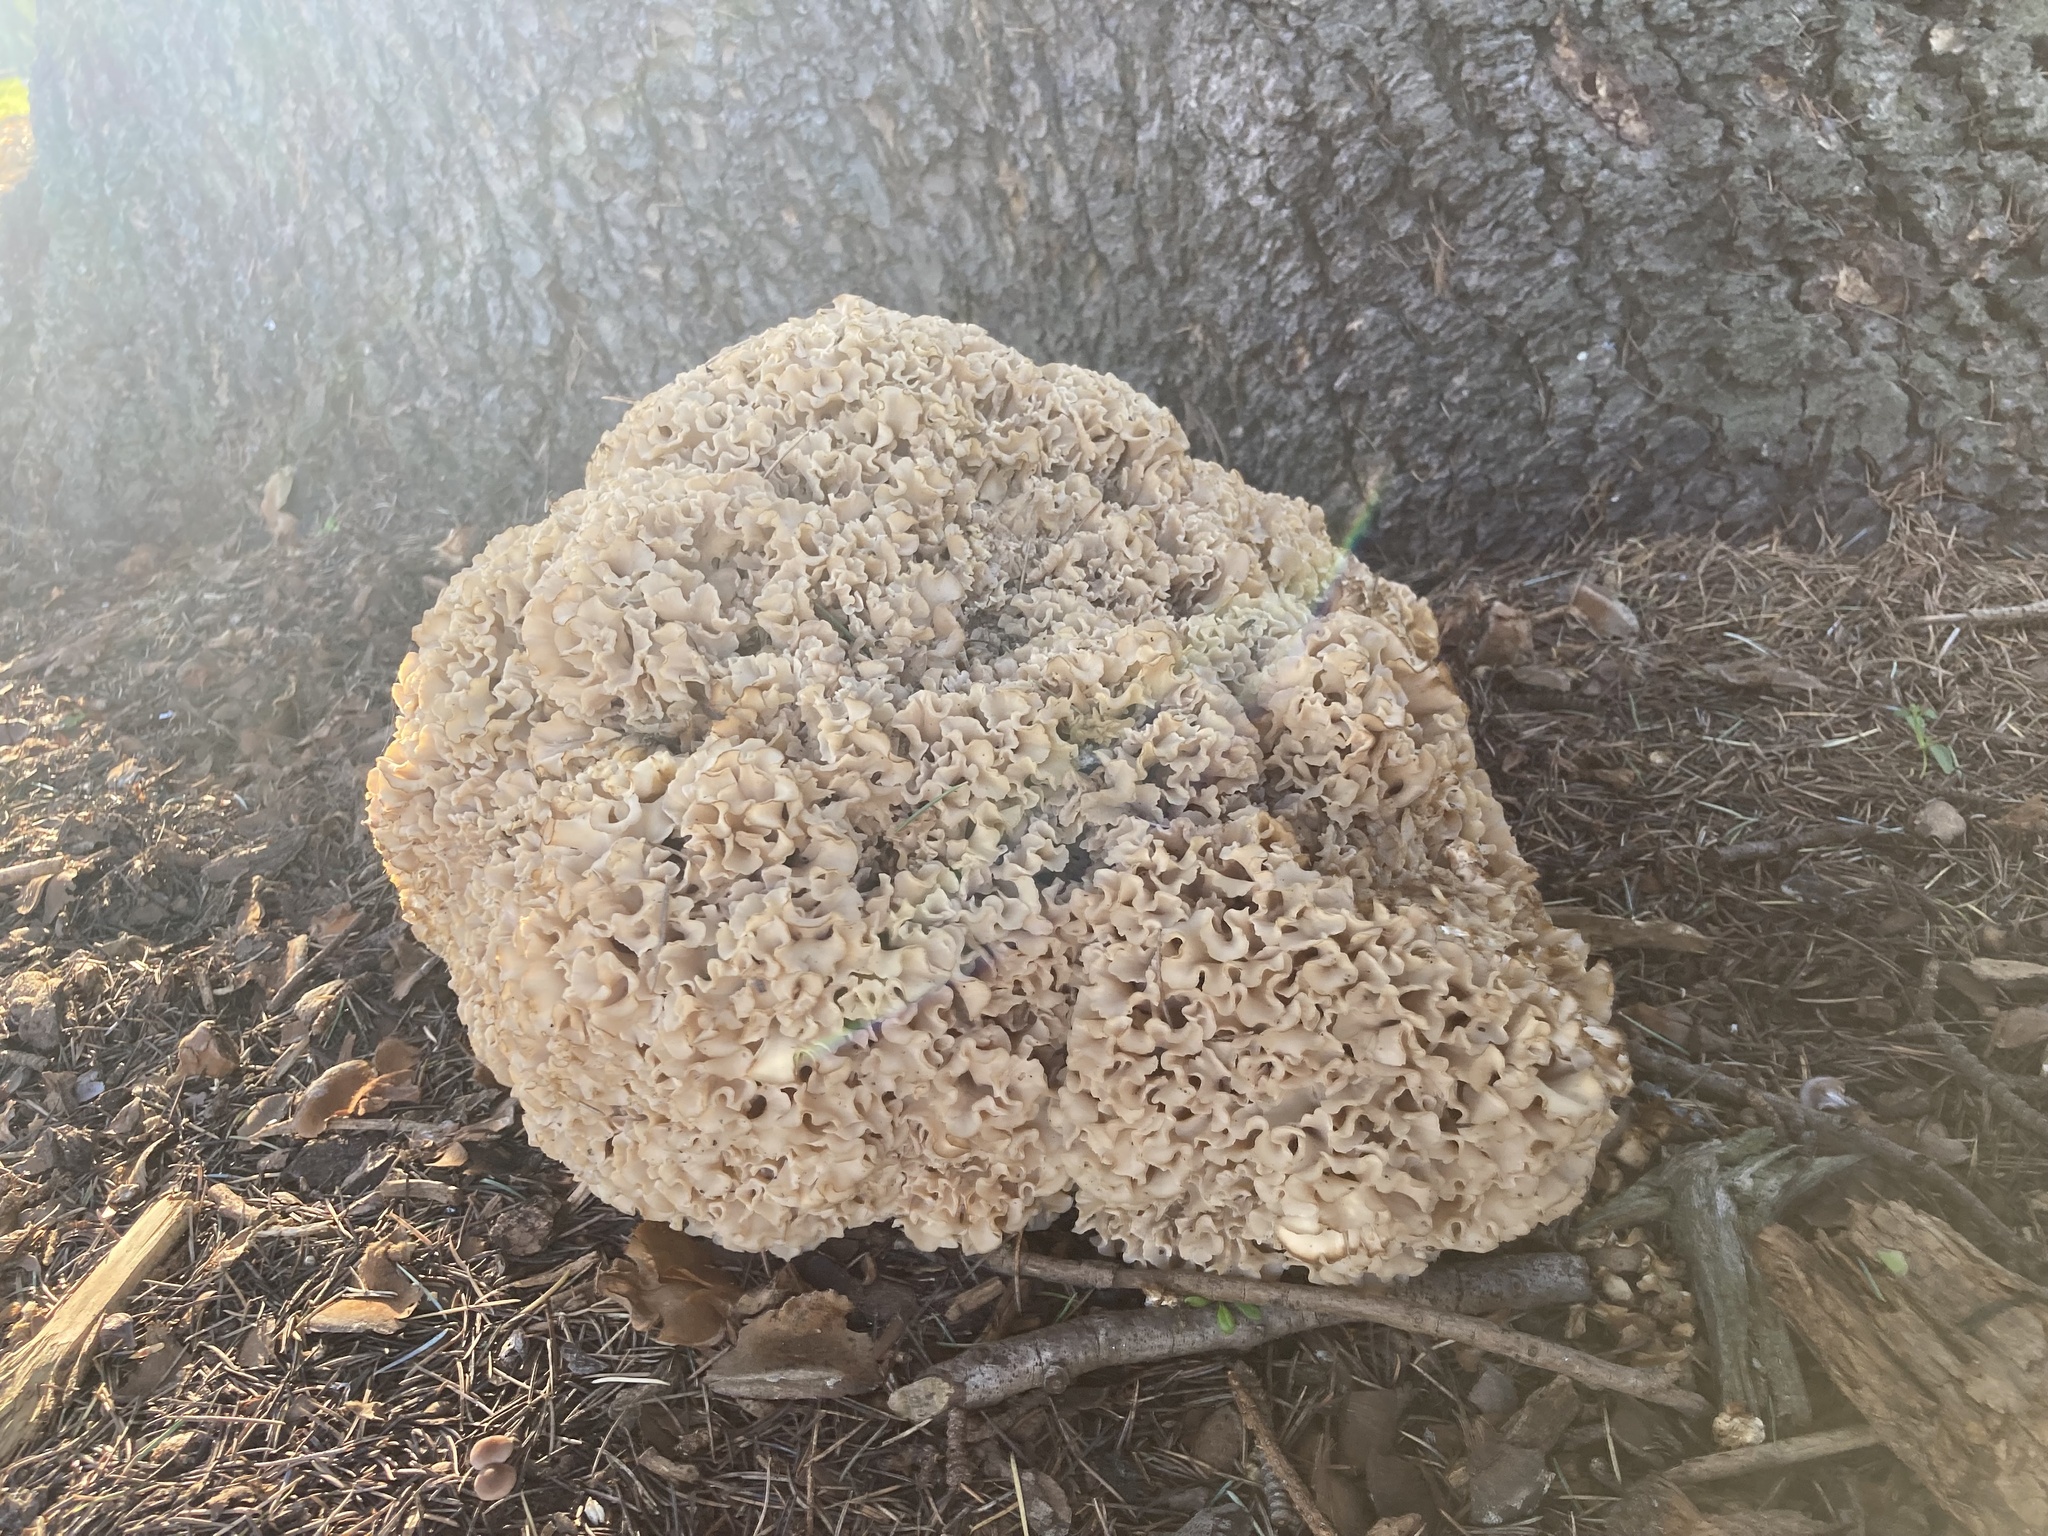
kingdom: Fungi
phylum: Basidiomycota
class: Agaricomycetes
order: Polyporales
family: Sparassidaceae
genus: Sparassis
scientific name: Sparassis crispa
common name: Brain fungus
